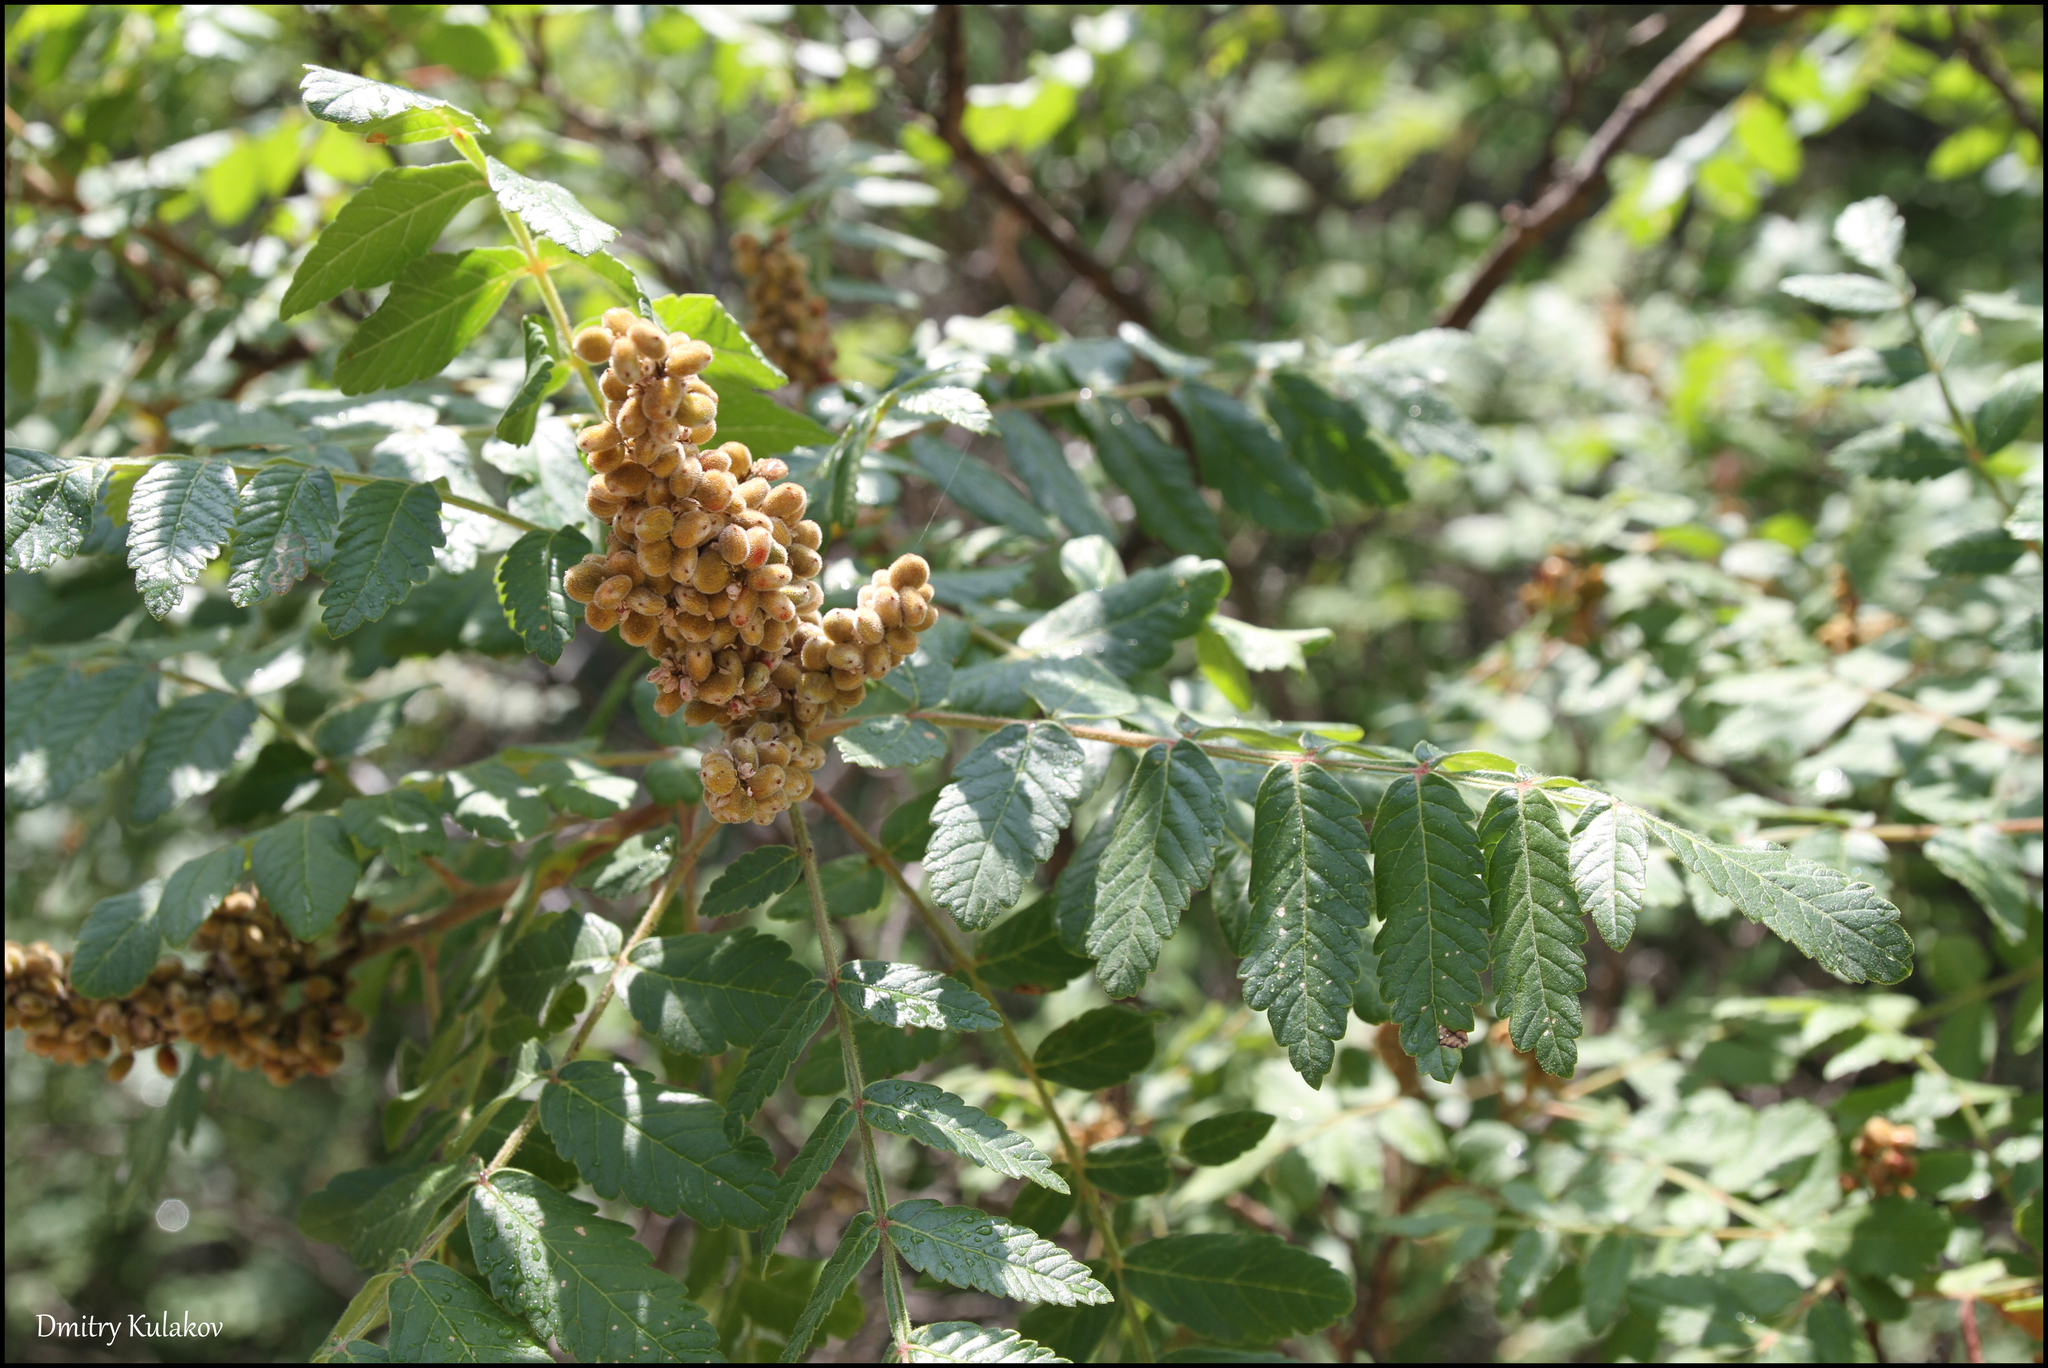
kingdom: Plantae
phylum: Tracheophyta
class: Magnoliopsida
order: Sapindales
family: Anacardiaceae
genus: Rhus
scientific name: Rhus coriaria
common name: Tanner's sumach
